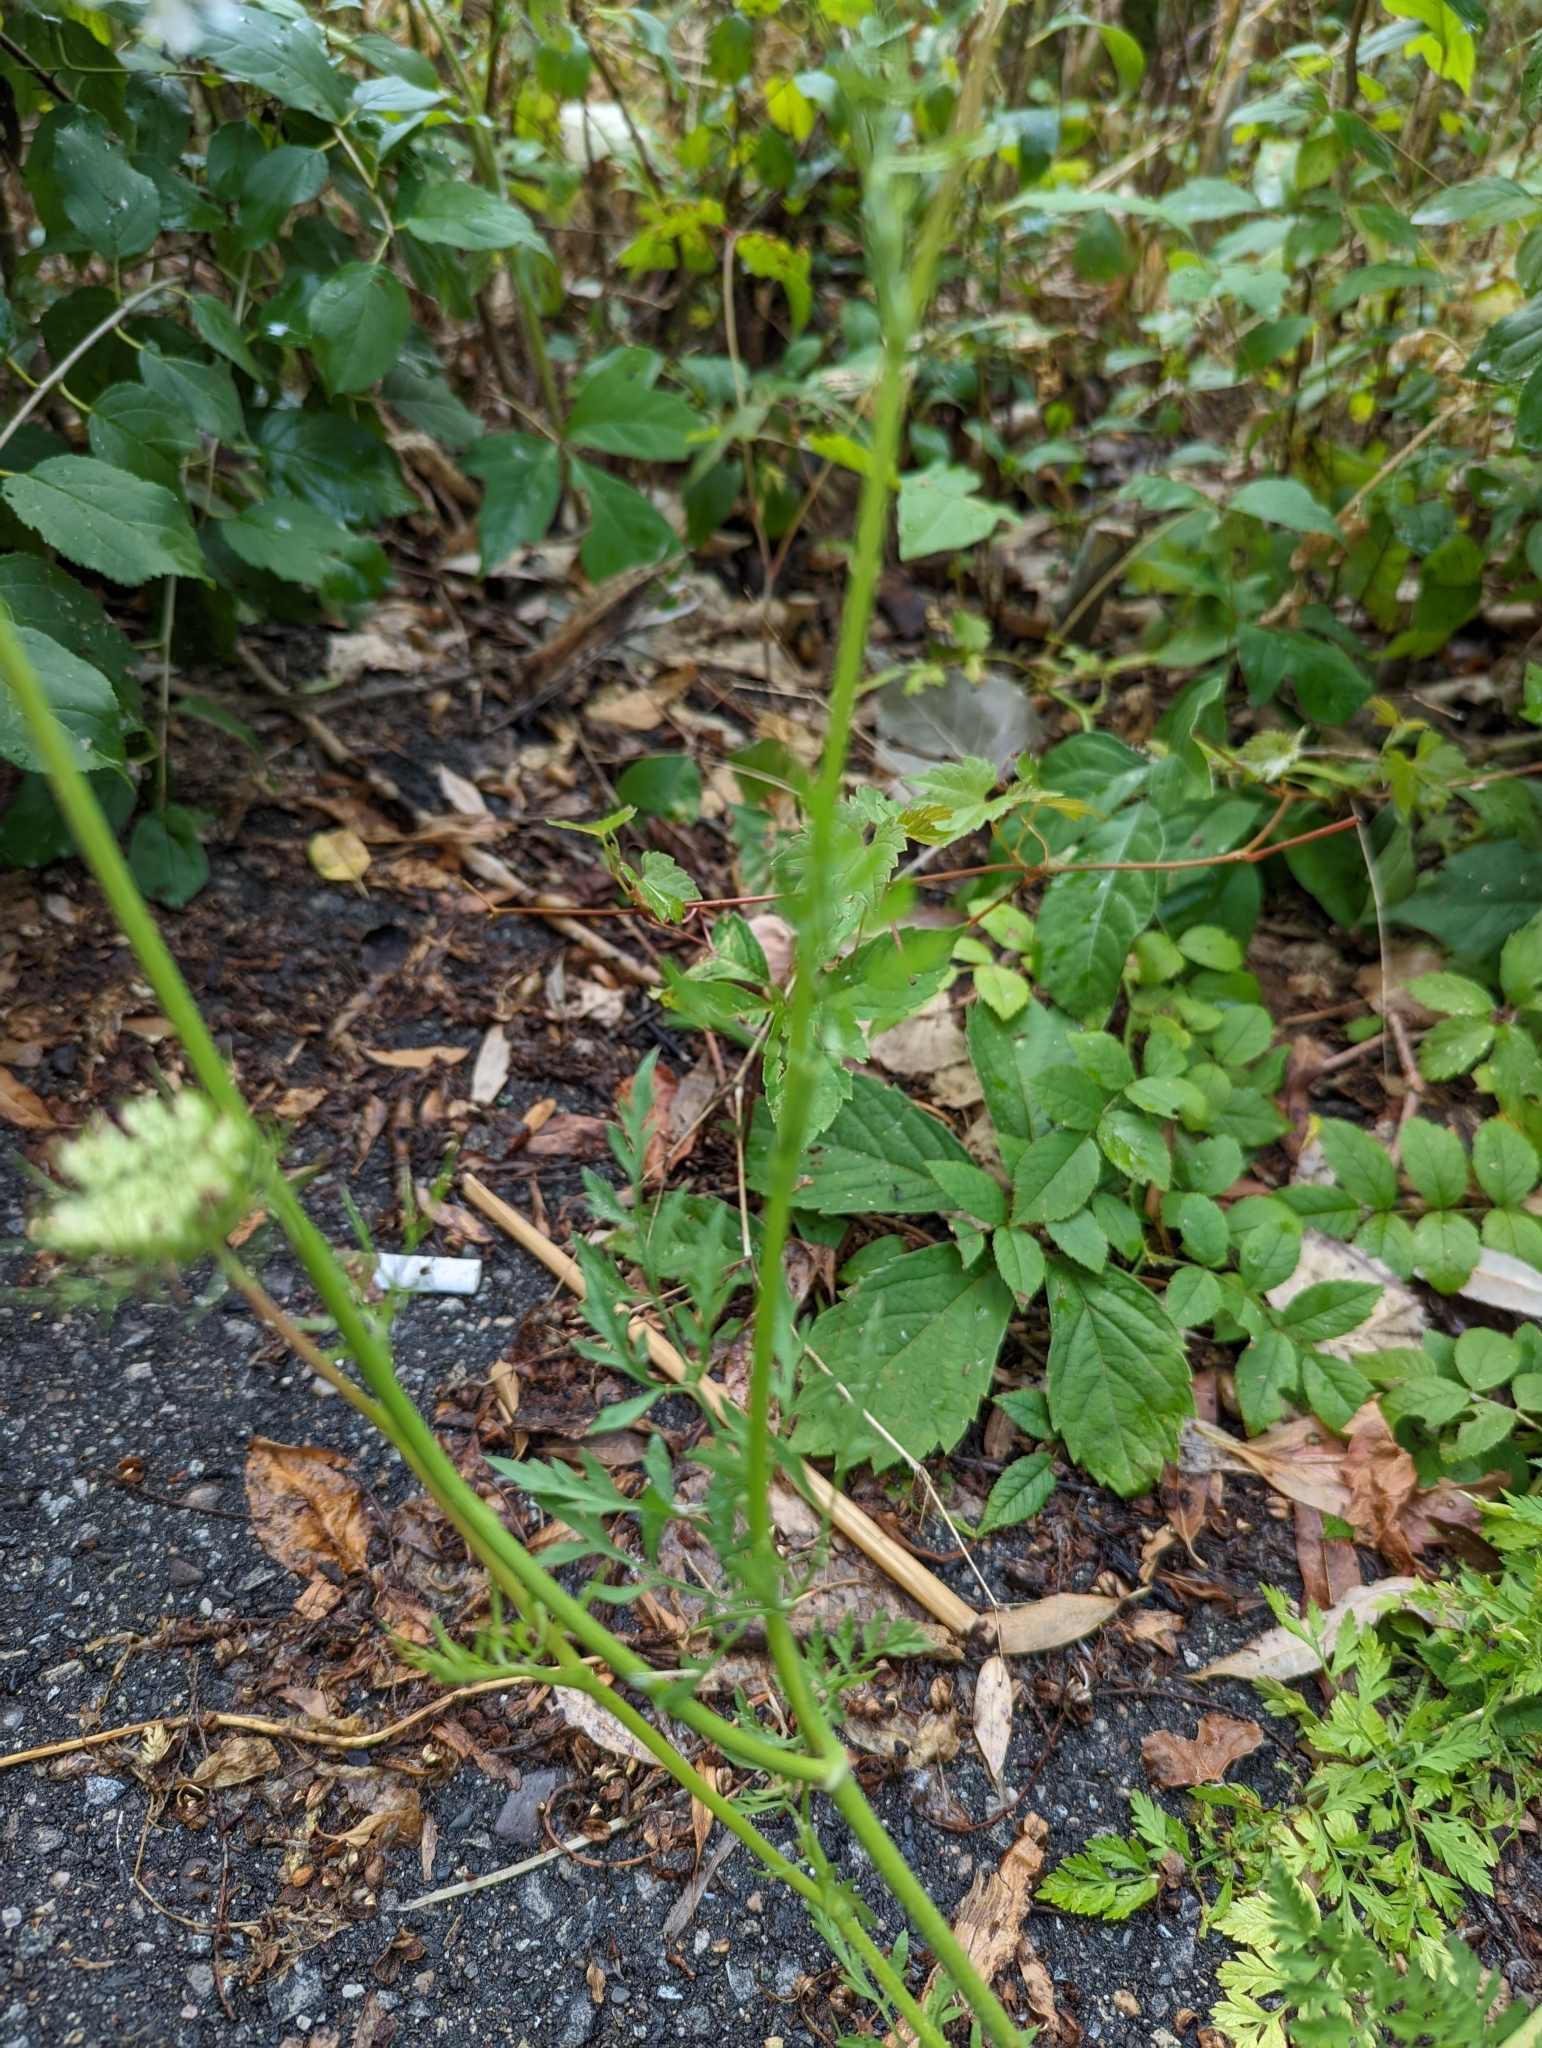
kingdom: Plantae
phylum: Tracheophyta
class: Magnoliopsida
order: Apiales
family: Apiaceae
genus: Daucus
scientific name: Daucus carota
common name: Wild carrot
